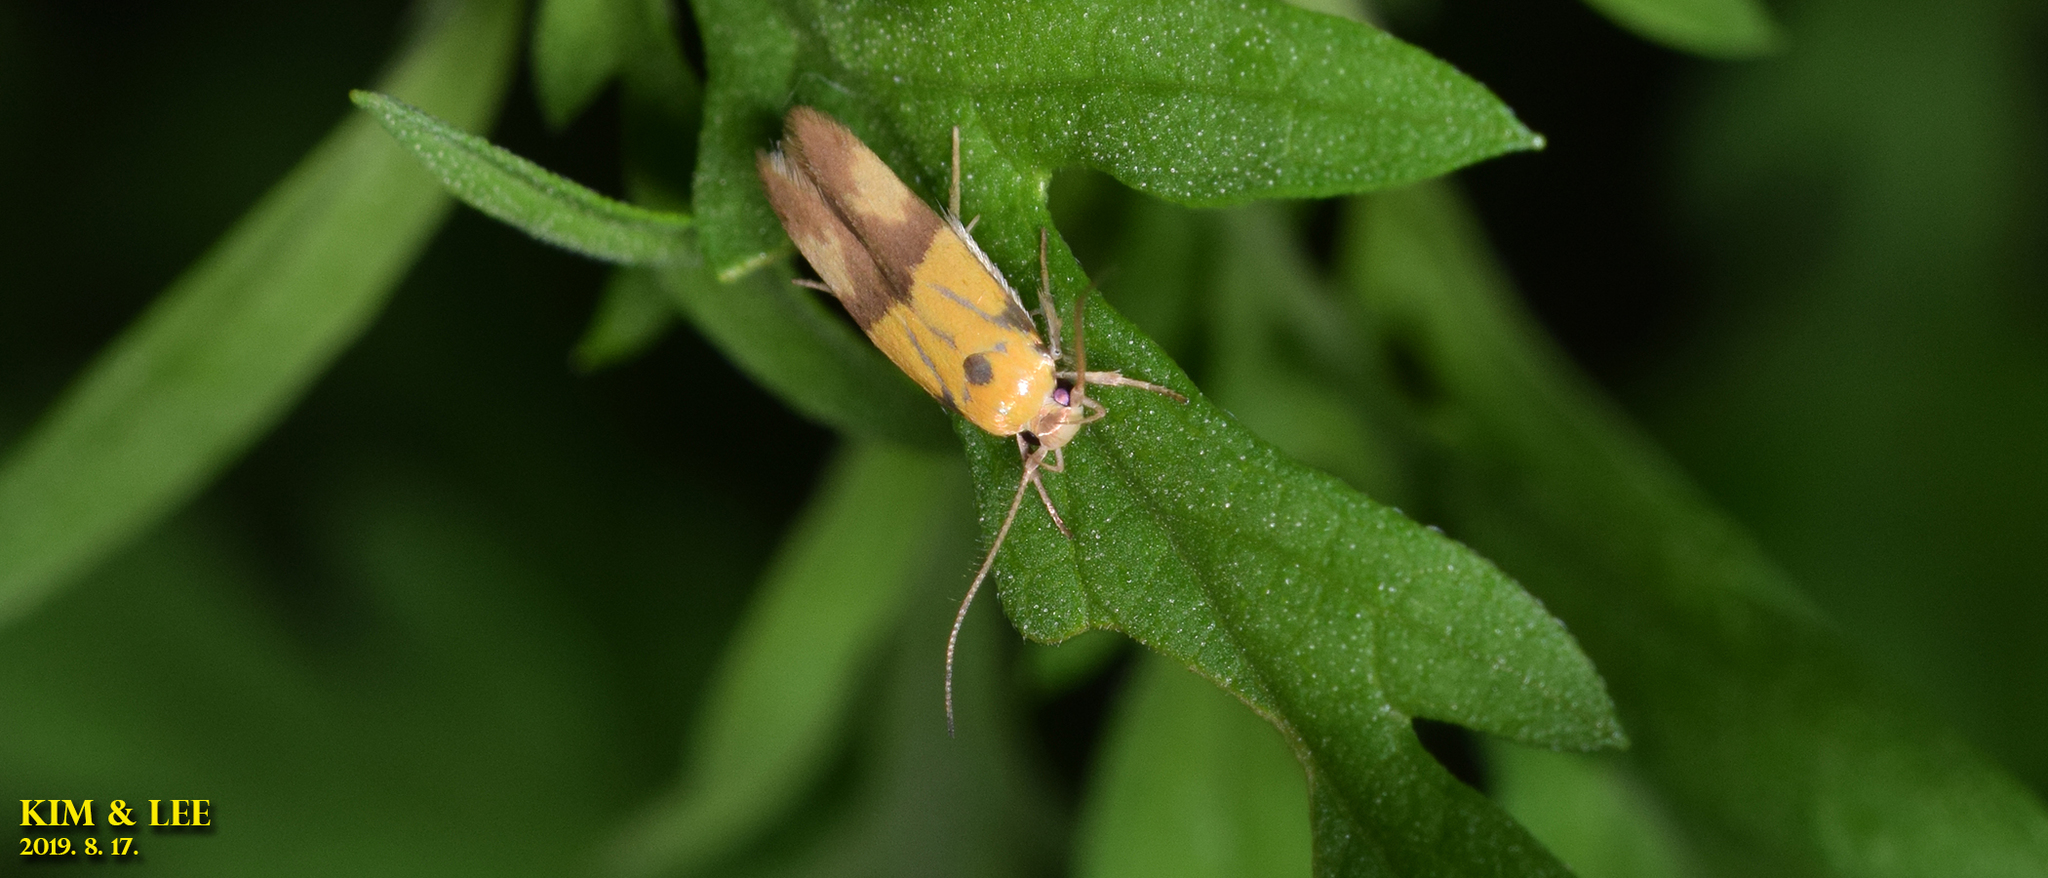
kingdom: Animalia
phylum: Arthropoda
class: Insecta
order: Lepidoptera
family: Stathmopodidae
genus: Stathmopoda
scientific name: Stathmopoda auriferella
